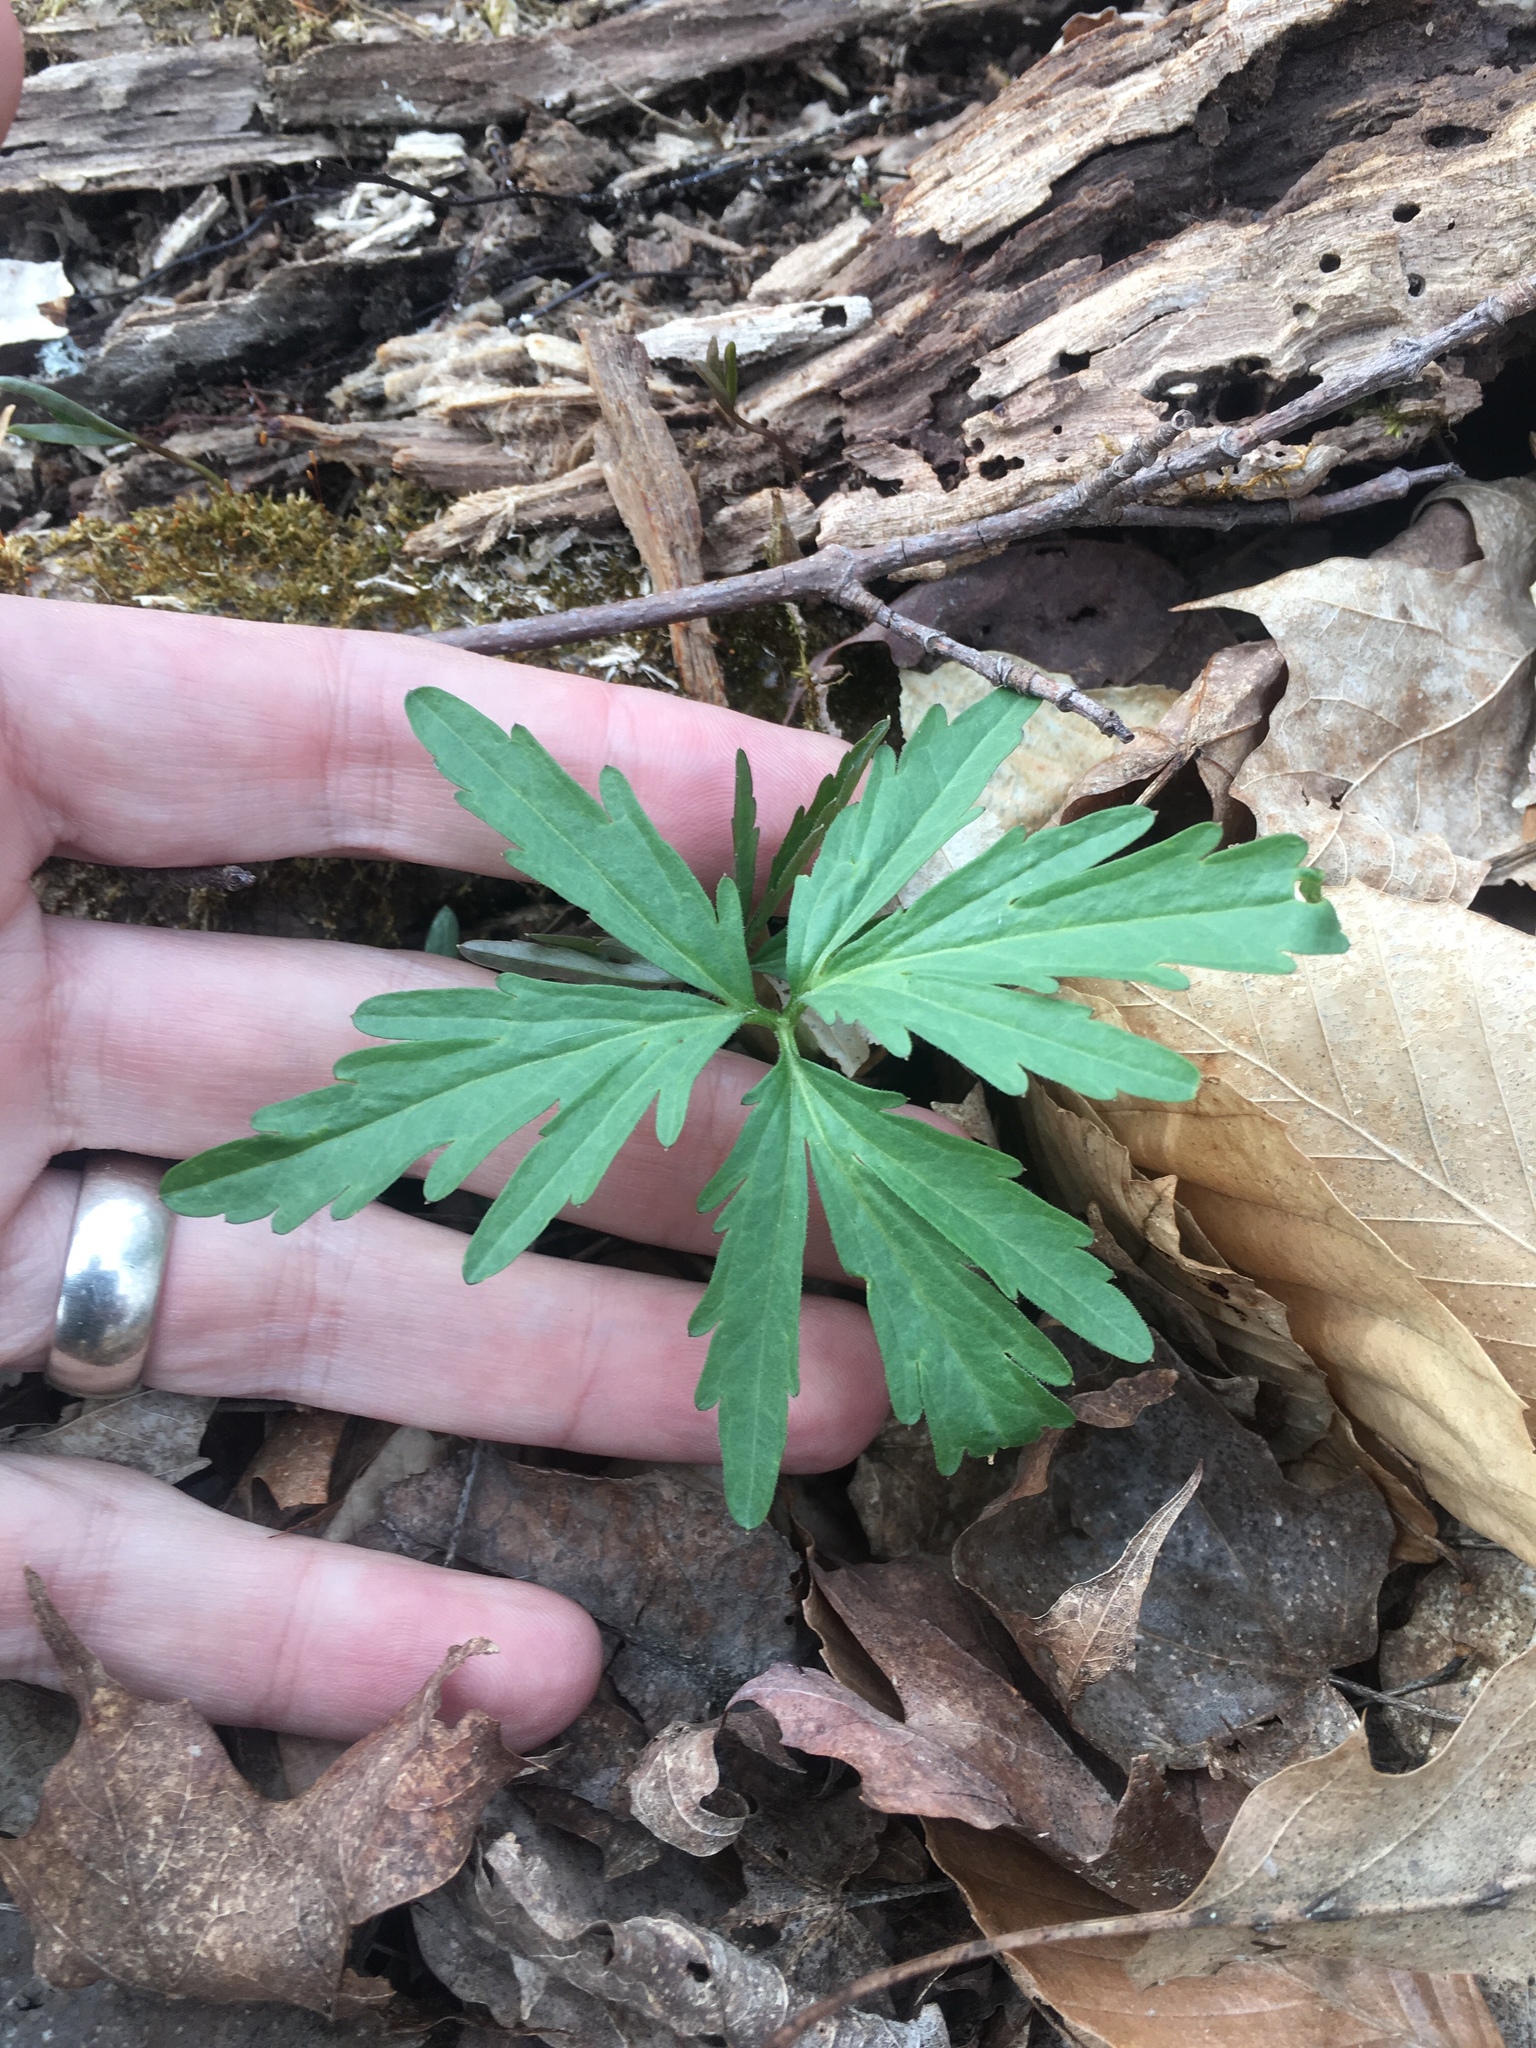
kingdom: Plantae
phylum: Tracheophyta
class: Magnoliopsida
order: Brassicales
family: Brassicaceae
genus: Cardamine
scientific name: Cardamine concatenata
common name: Cut-leaf toothcup
